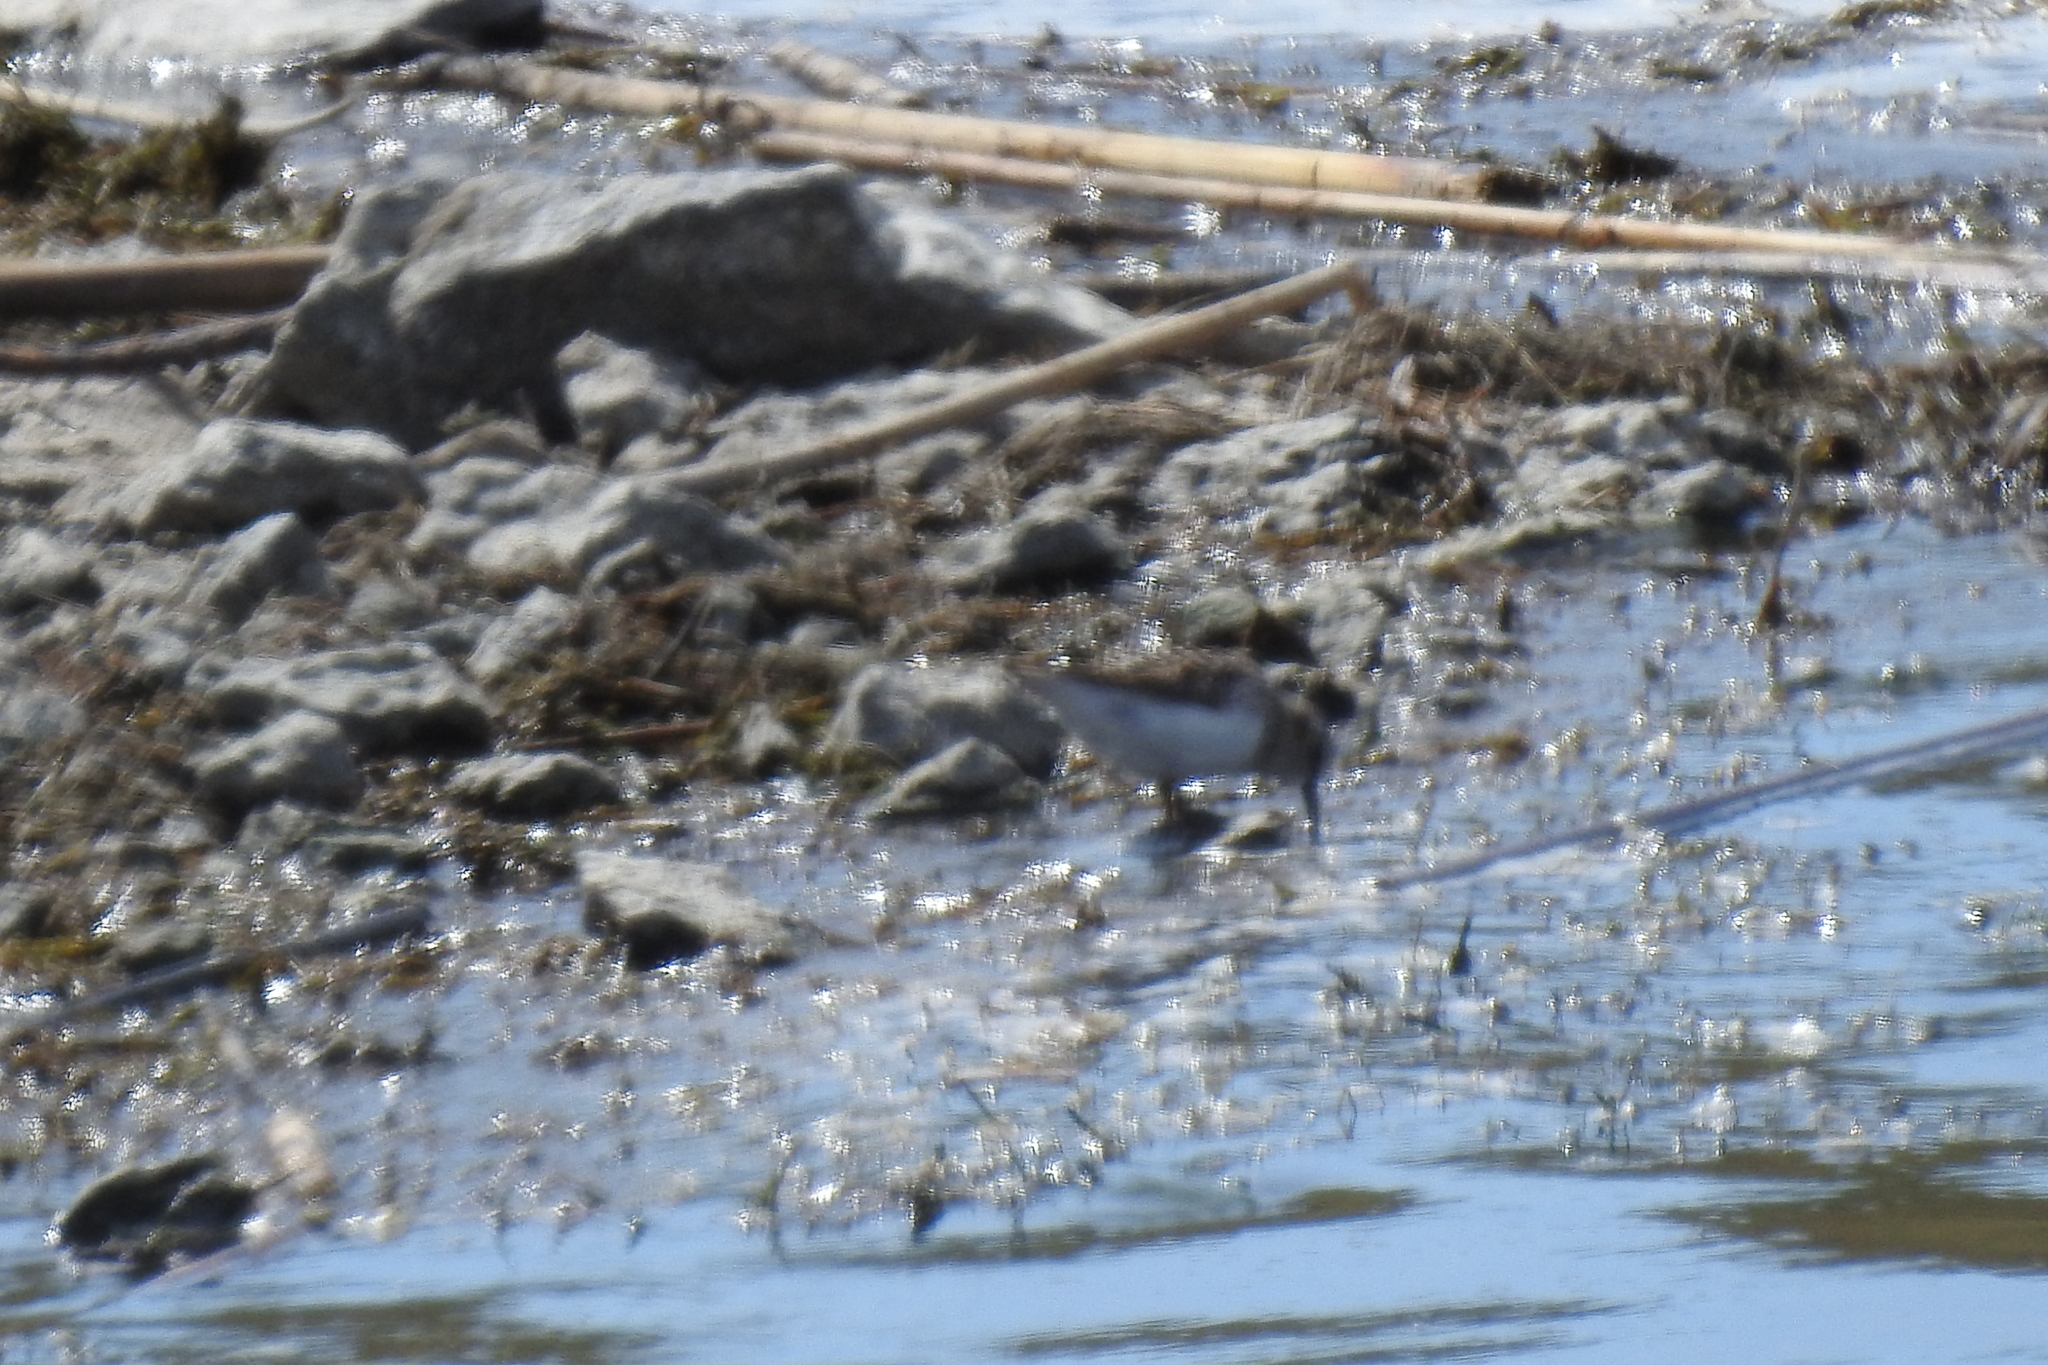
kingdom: Animalia
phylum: Chordata
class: Aves
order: Charadriiformes
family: Scolopacidae
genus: Calidris
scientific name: Calidris minutilla
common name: Least sandpiper
